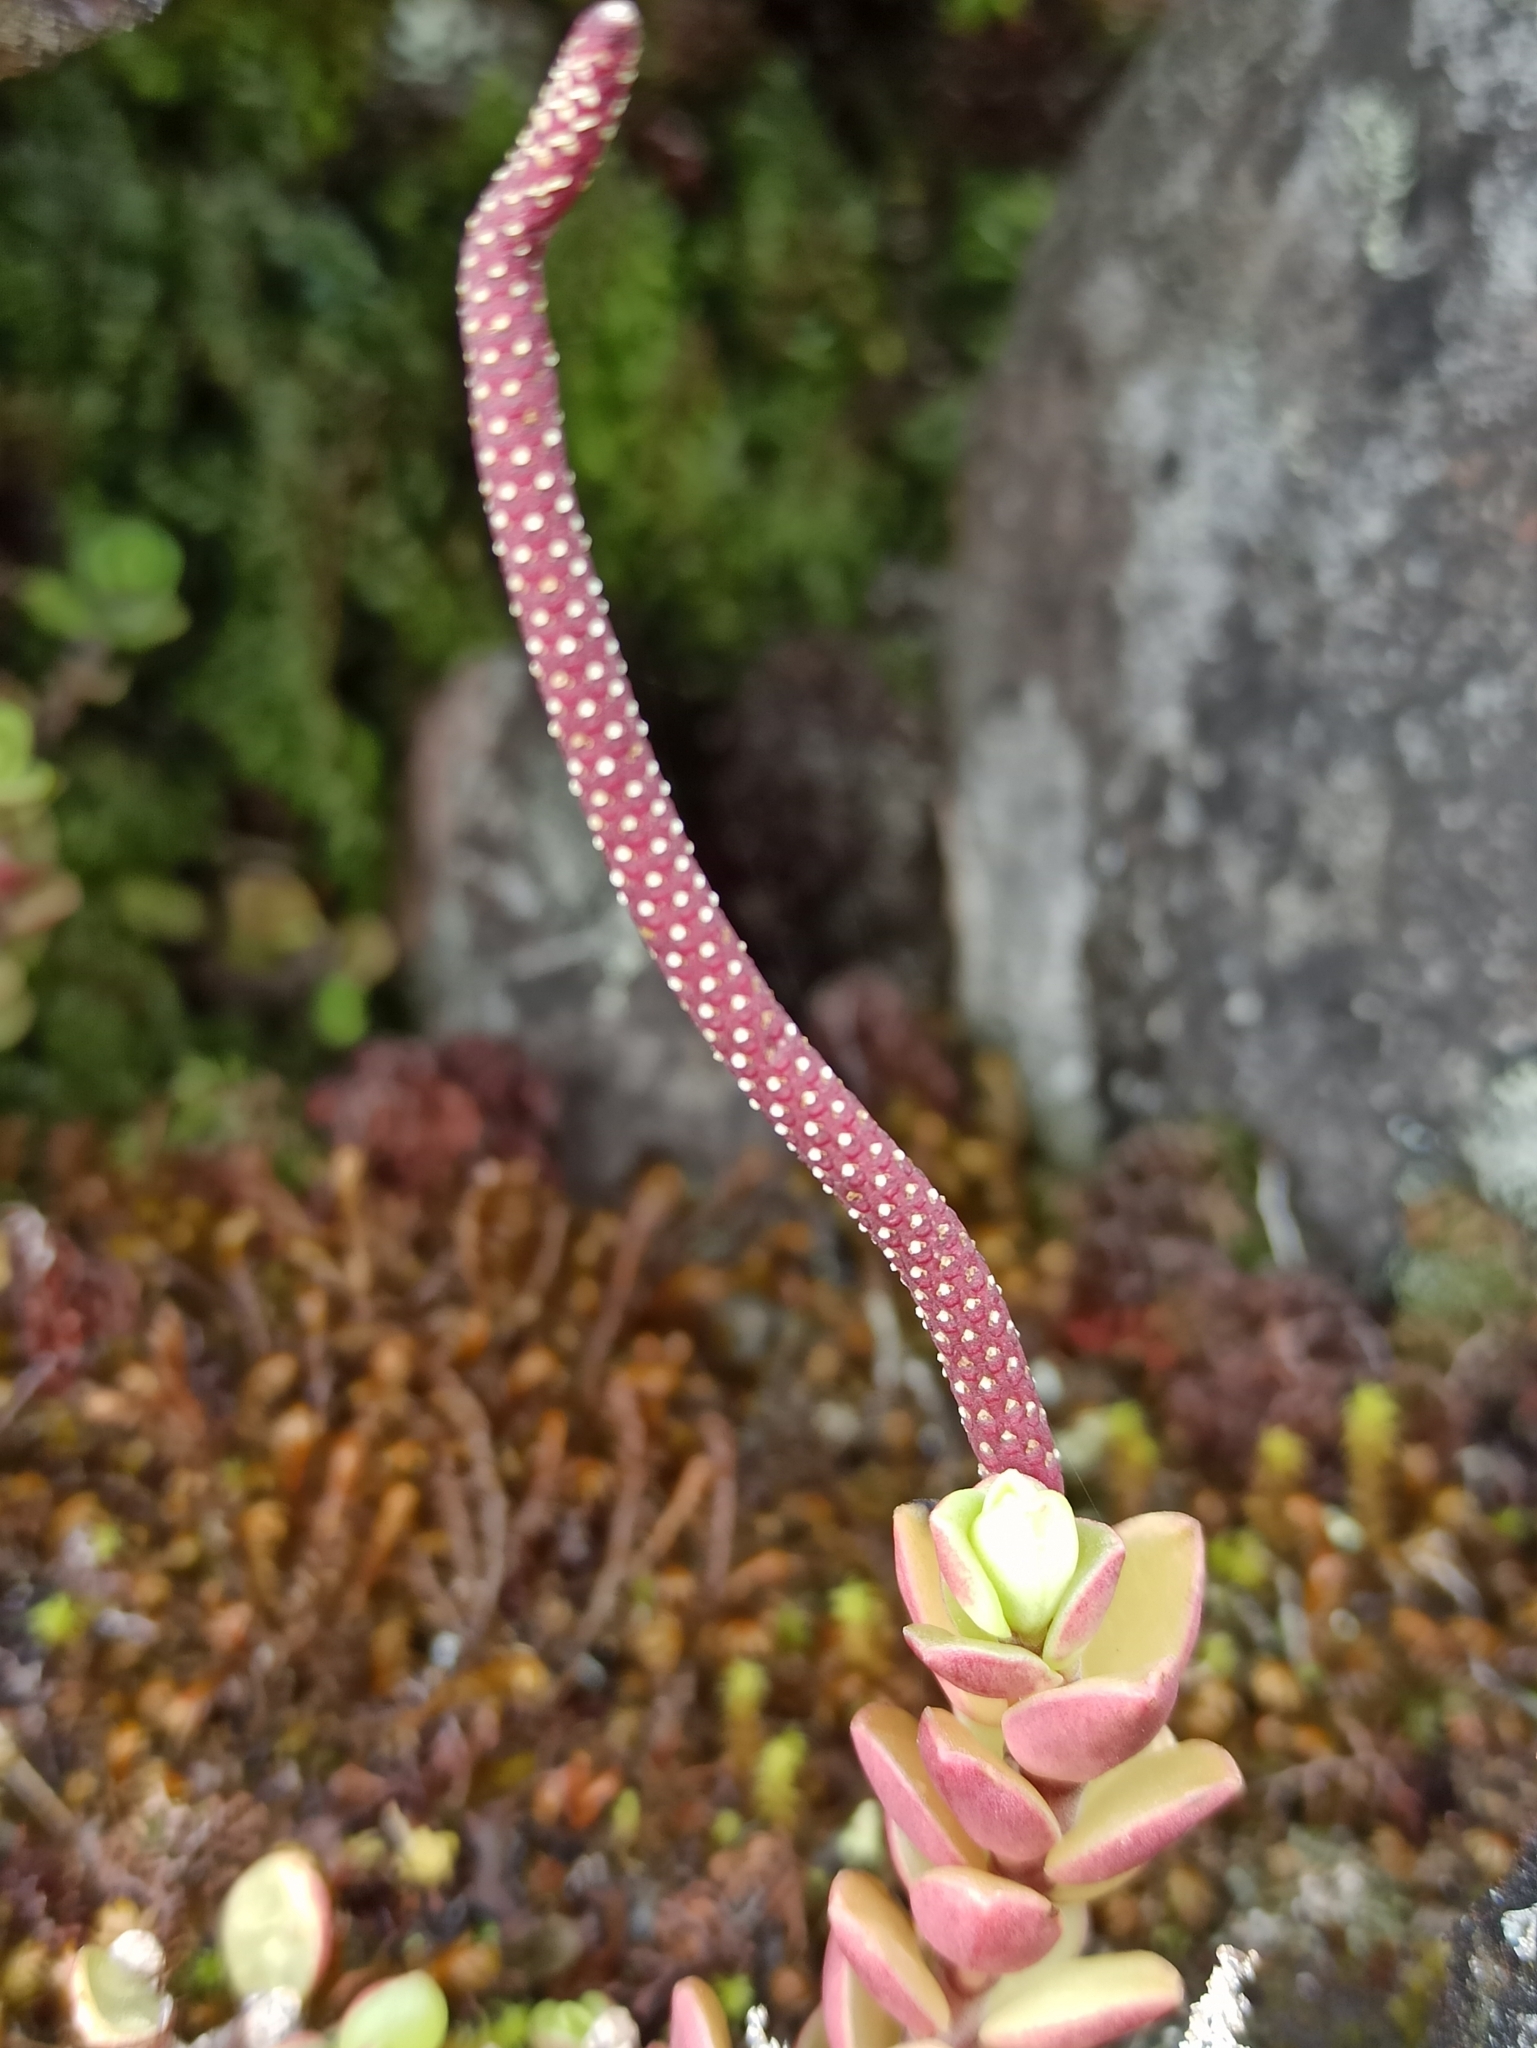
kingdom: Plantae
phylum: Tracheophyta
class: Magnoliopsida
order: Piperales
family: Piperaceae
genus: Peperomia
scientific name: Peperomia hartwegiana
